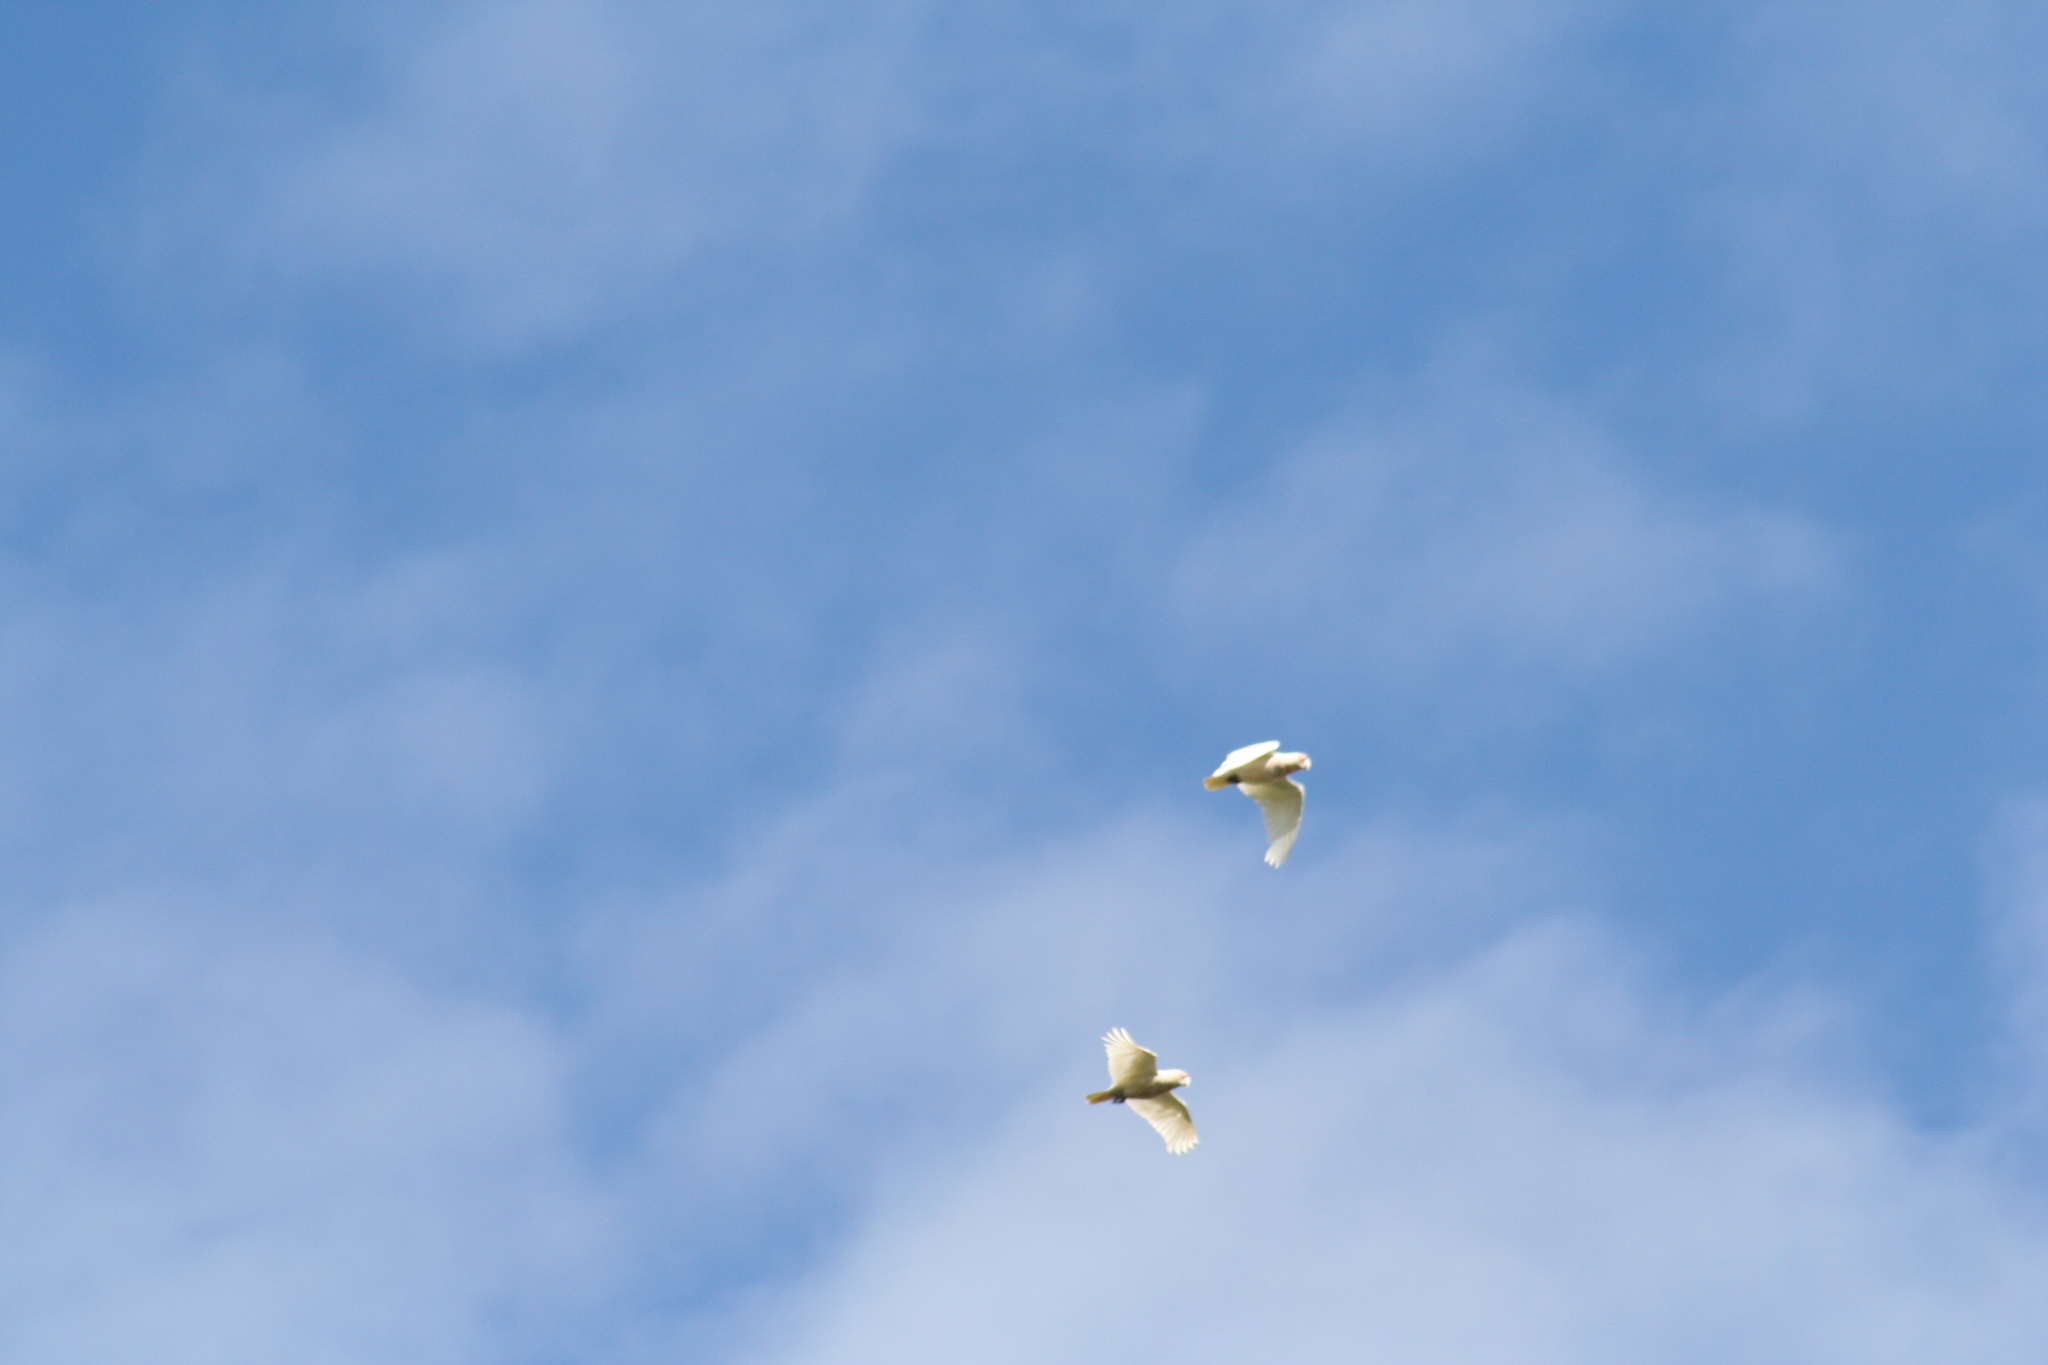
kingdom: Animalia
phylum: Chordata
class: Aves
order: Psittaciformes
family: Psittacidae
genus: Cacatua
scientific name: Cacatua tenuirostris
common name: Long-billed corella
